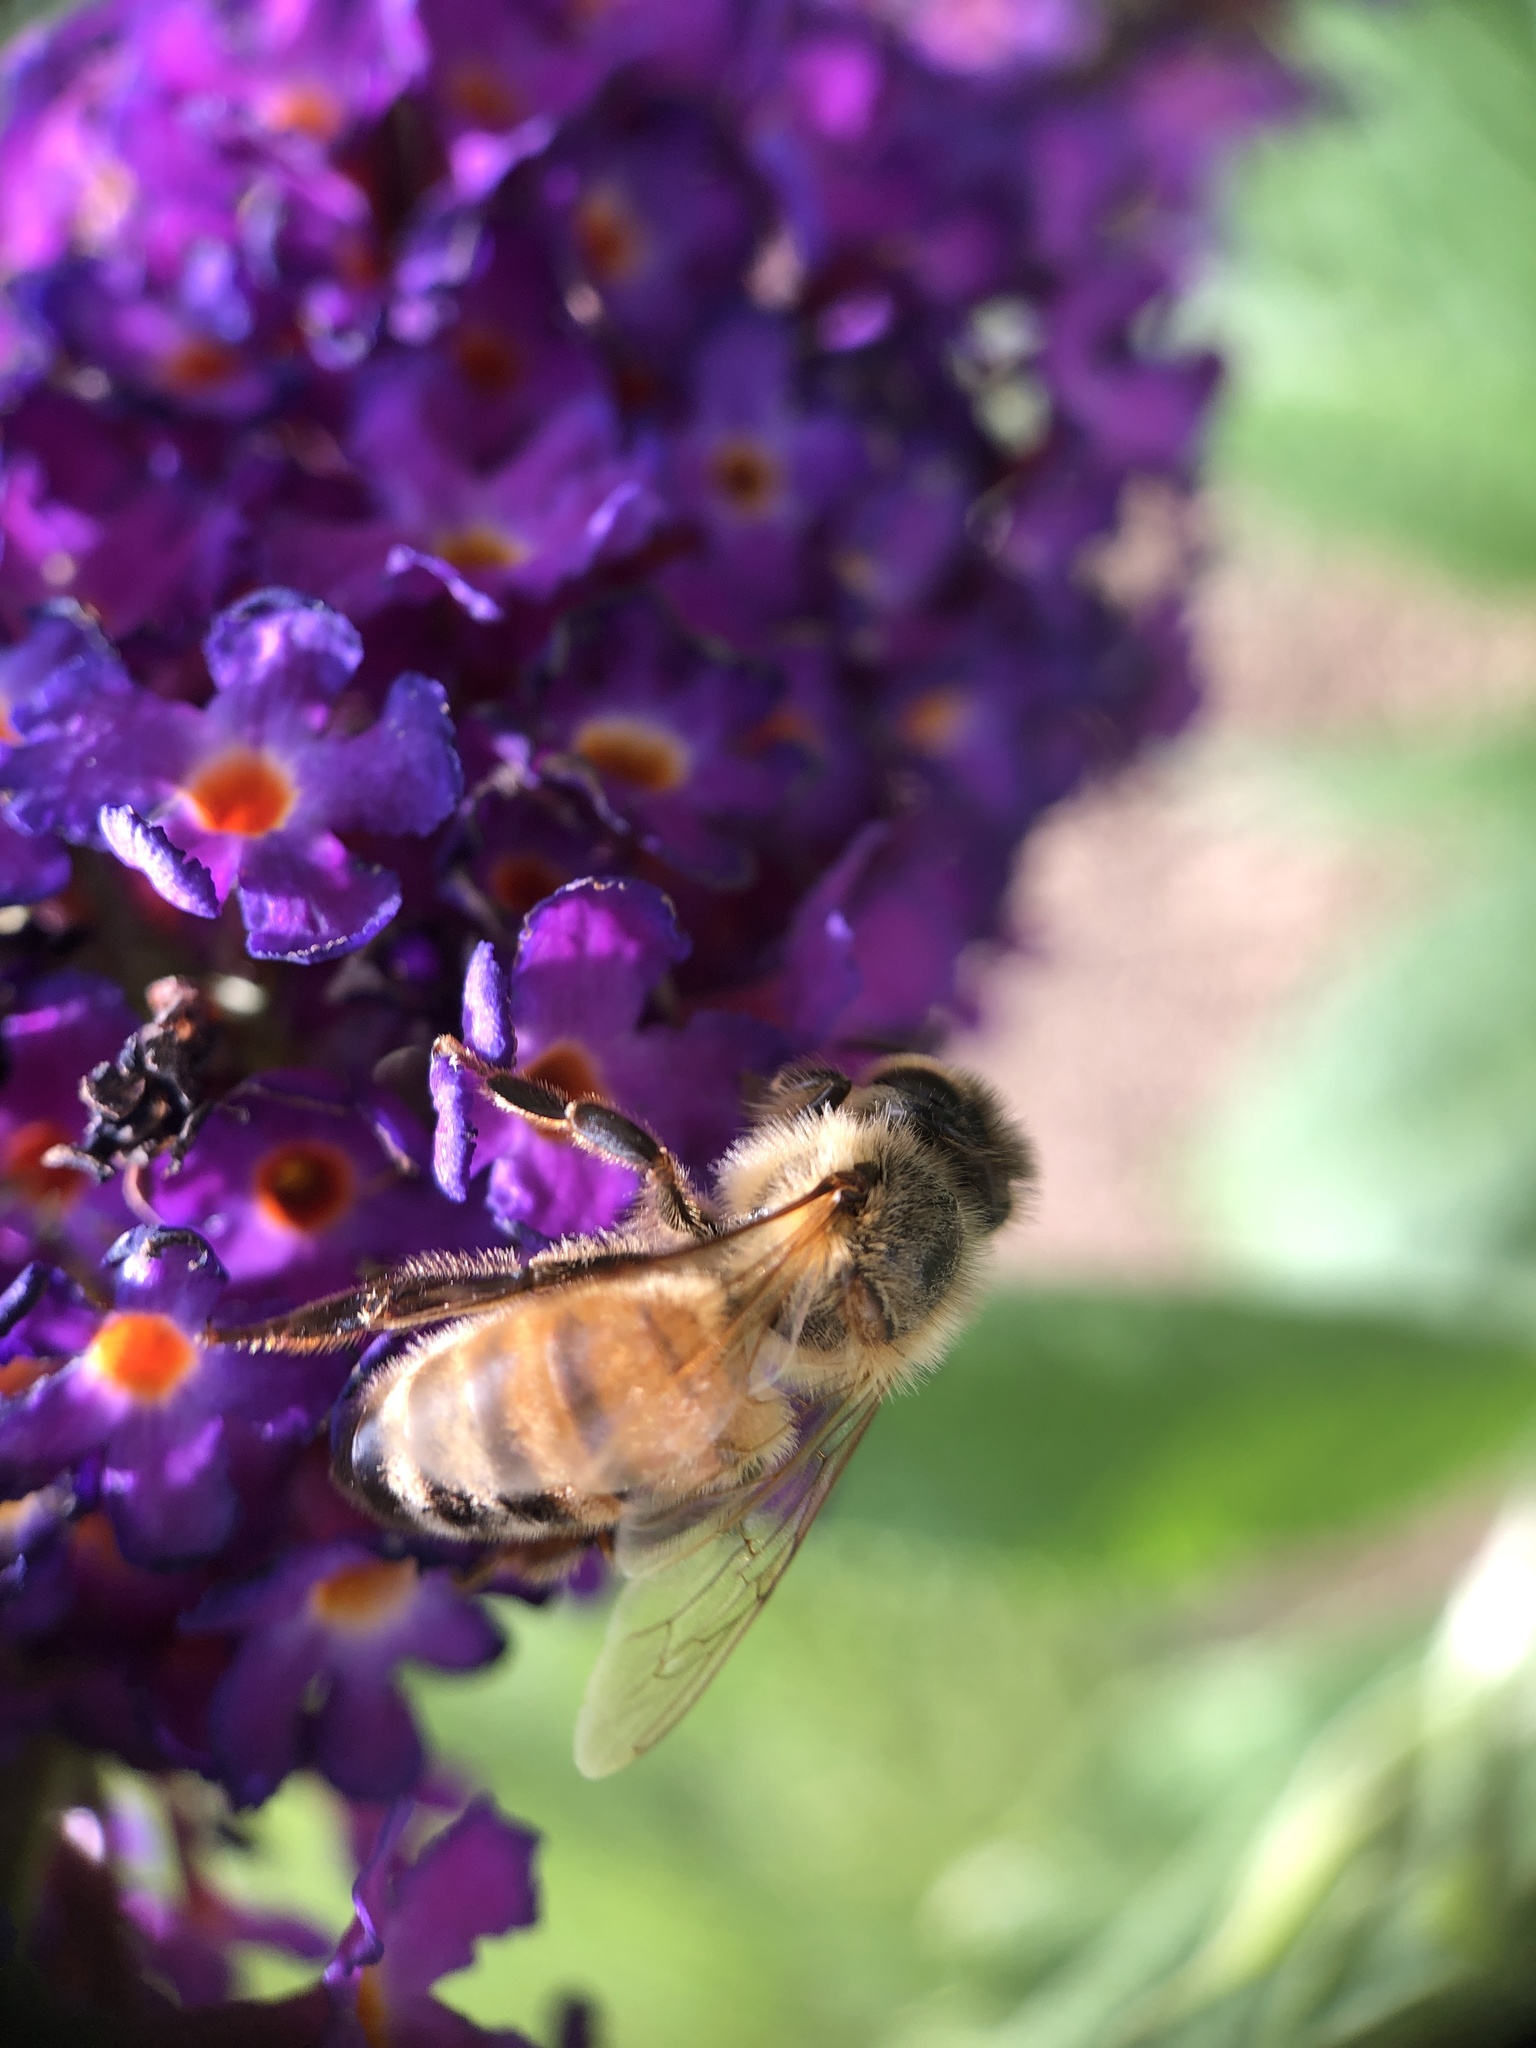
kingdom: Animalia
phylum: Arthropoda
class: Insecta
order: Hymenoptera
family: Apidae
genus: Apis
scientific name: Apis mellifera
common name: Honey bee
